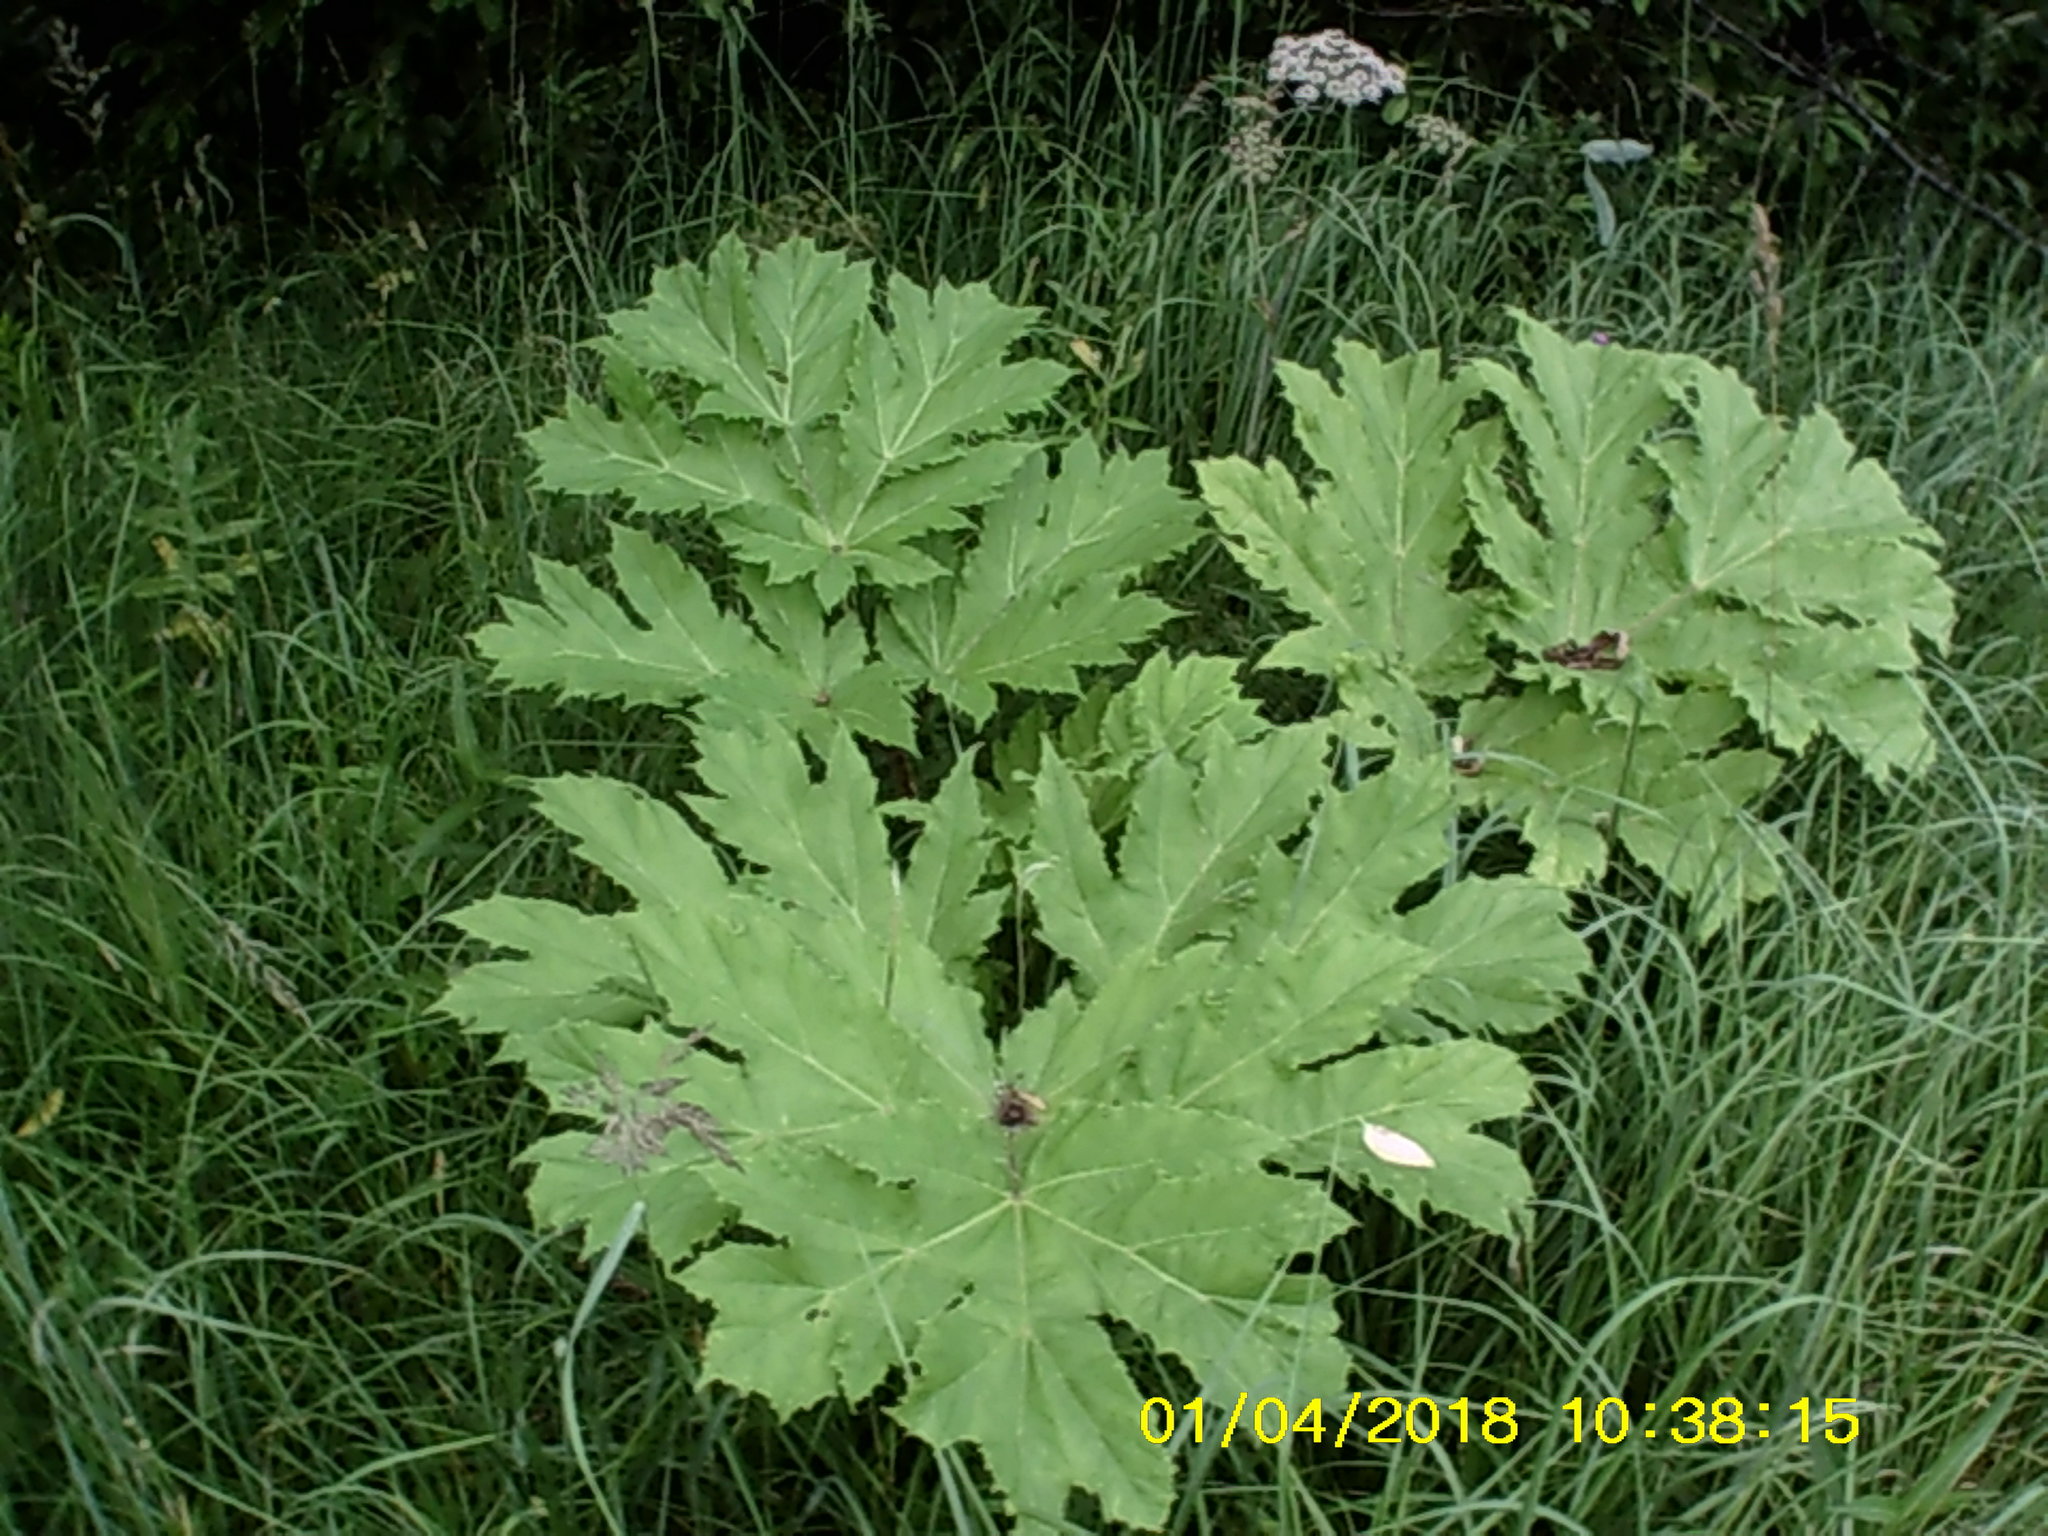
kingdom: Plantae
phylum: Tracheophyta
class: Magnoliopsida
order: Apiales
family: Apiaceae
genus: Heracleum
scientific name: Heracleum sosnowskyi
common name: Sosnowsky's hogweed
